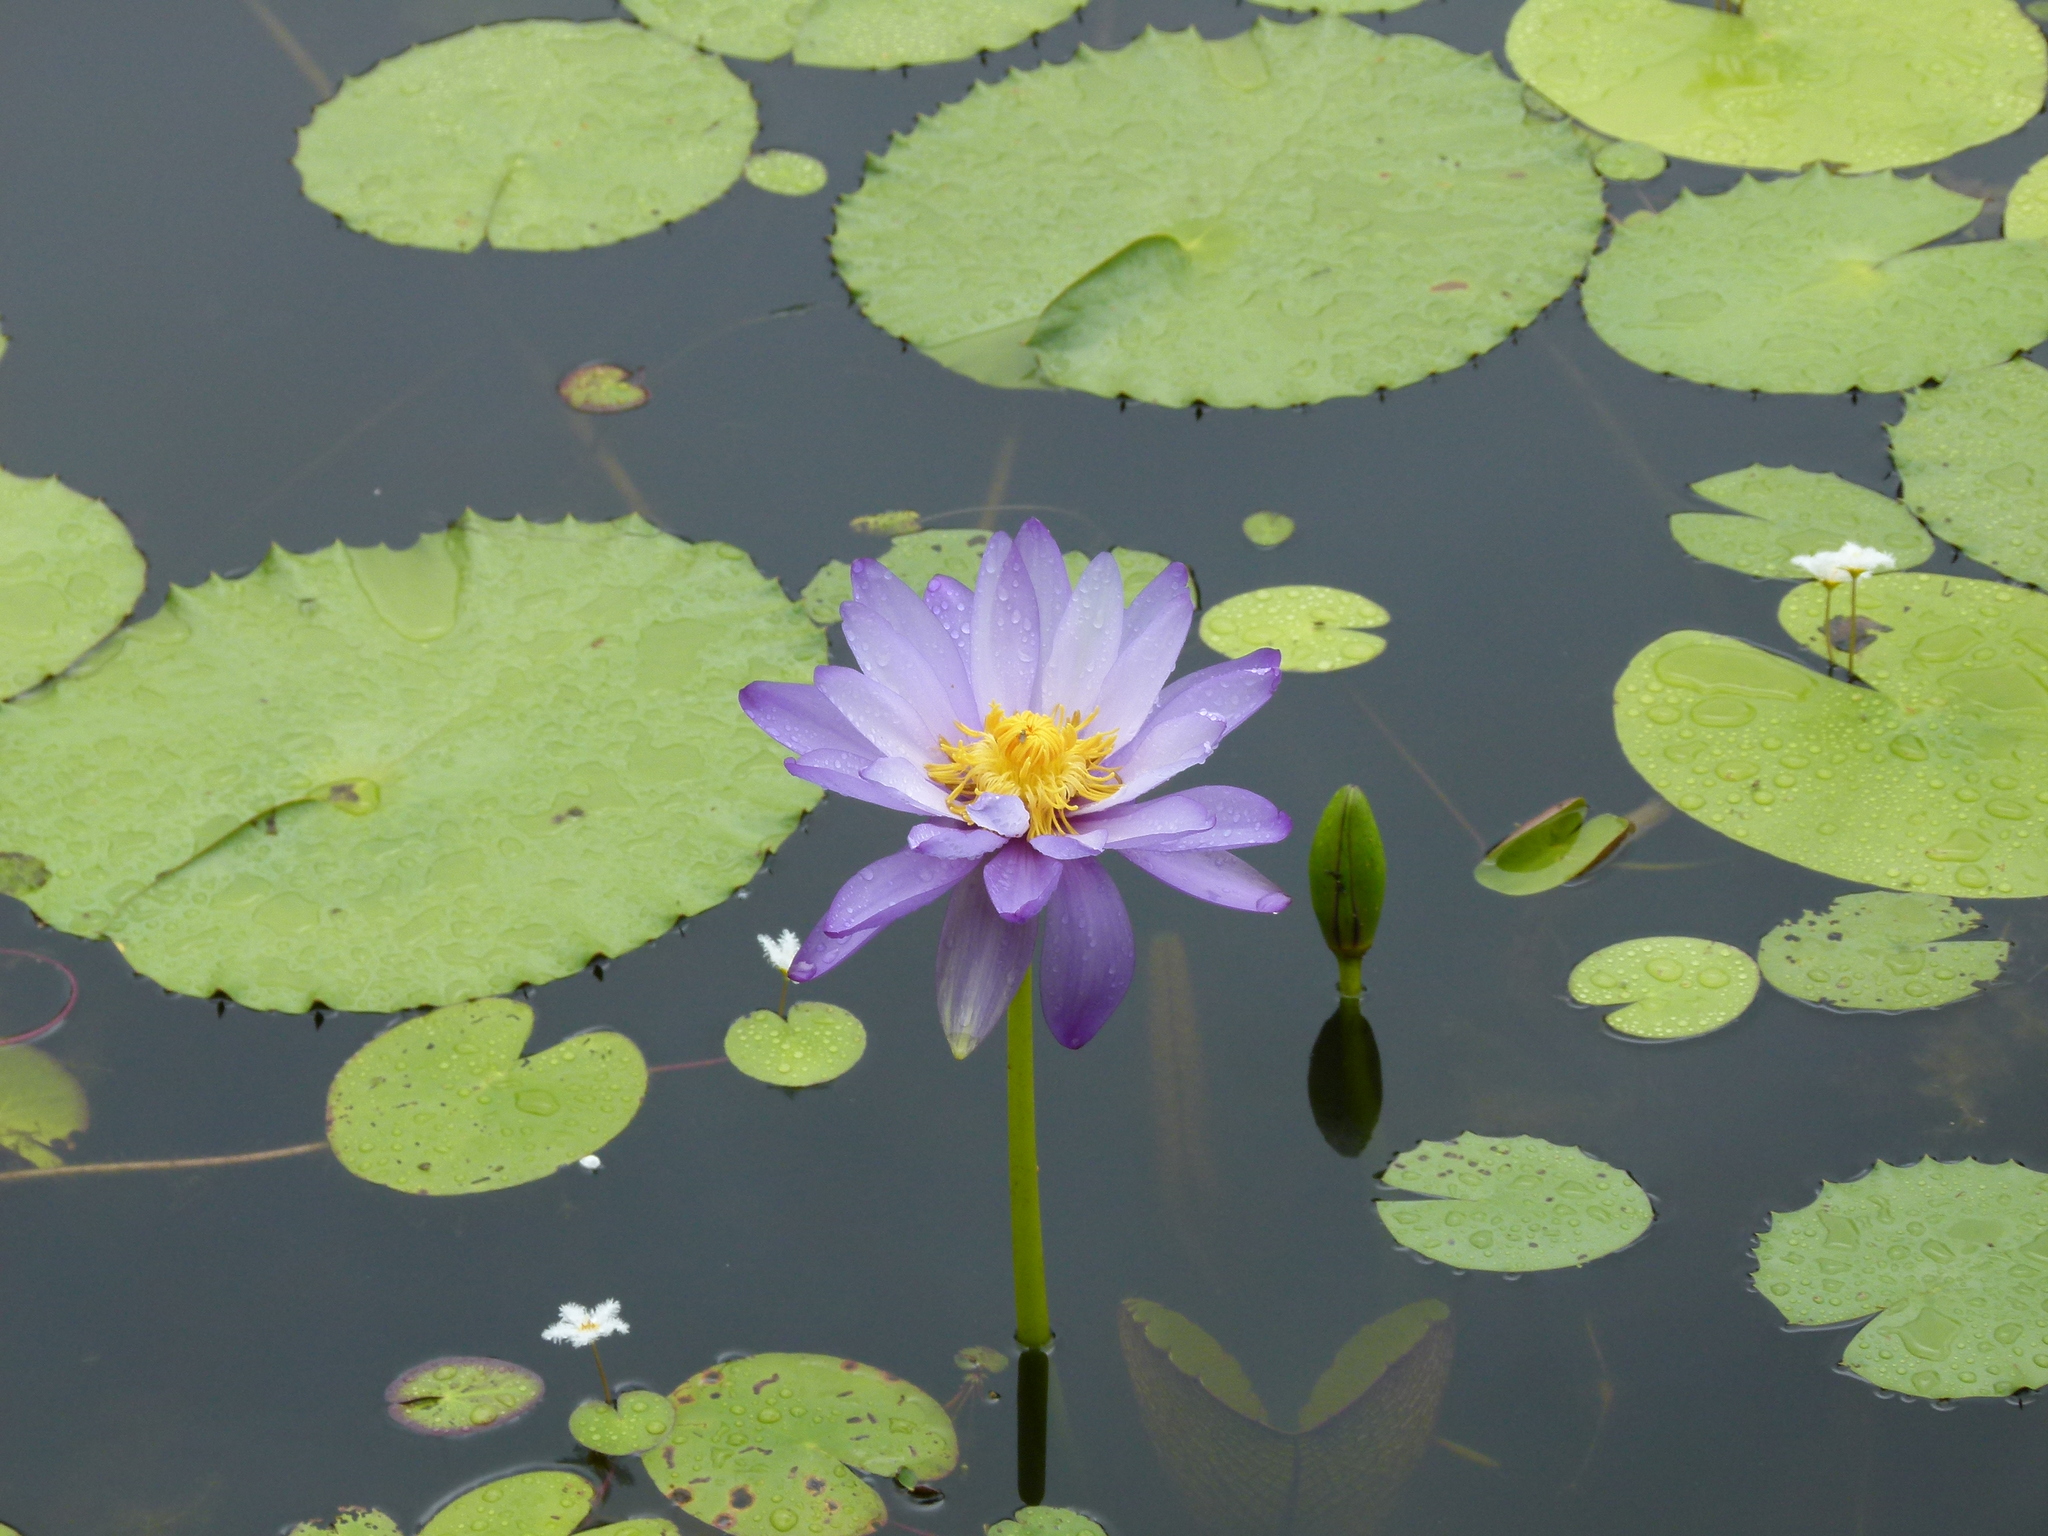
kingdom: Plantae
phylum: Tracheophyta
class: Magnoliopsida
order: Nymphaeales
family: Nymphaeaceae
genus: Nymphaea
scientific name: Nymphaea gigantea
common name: Giant water-lily
